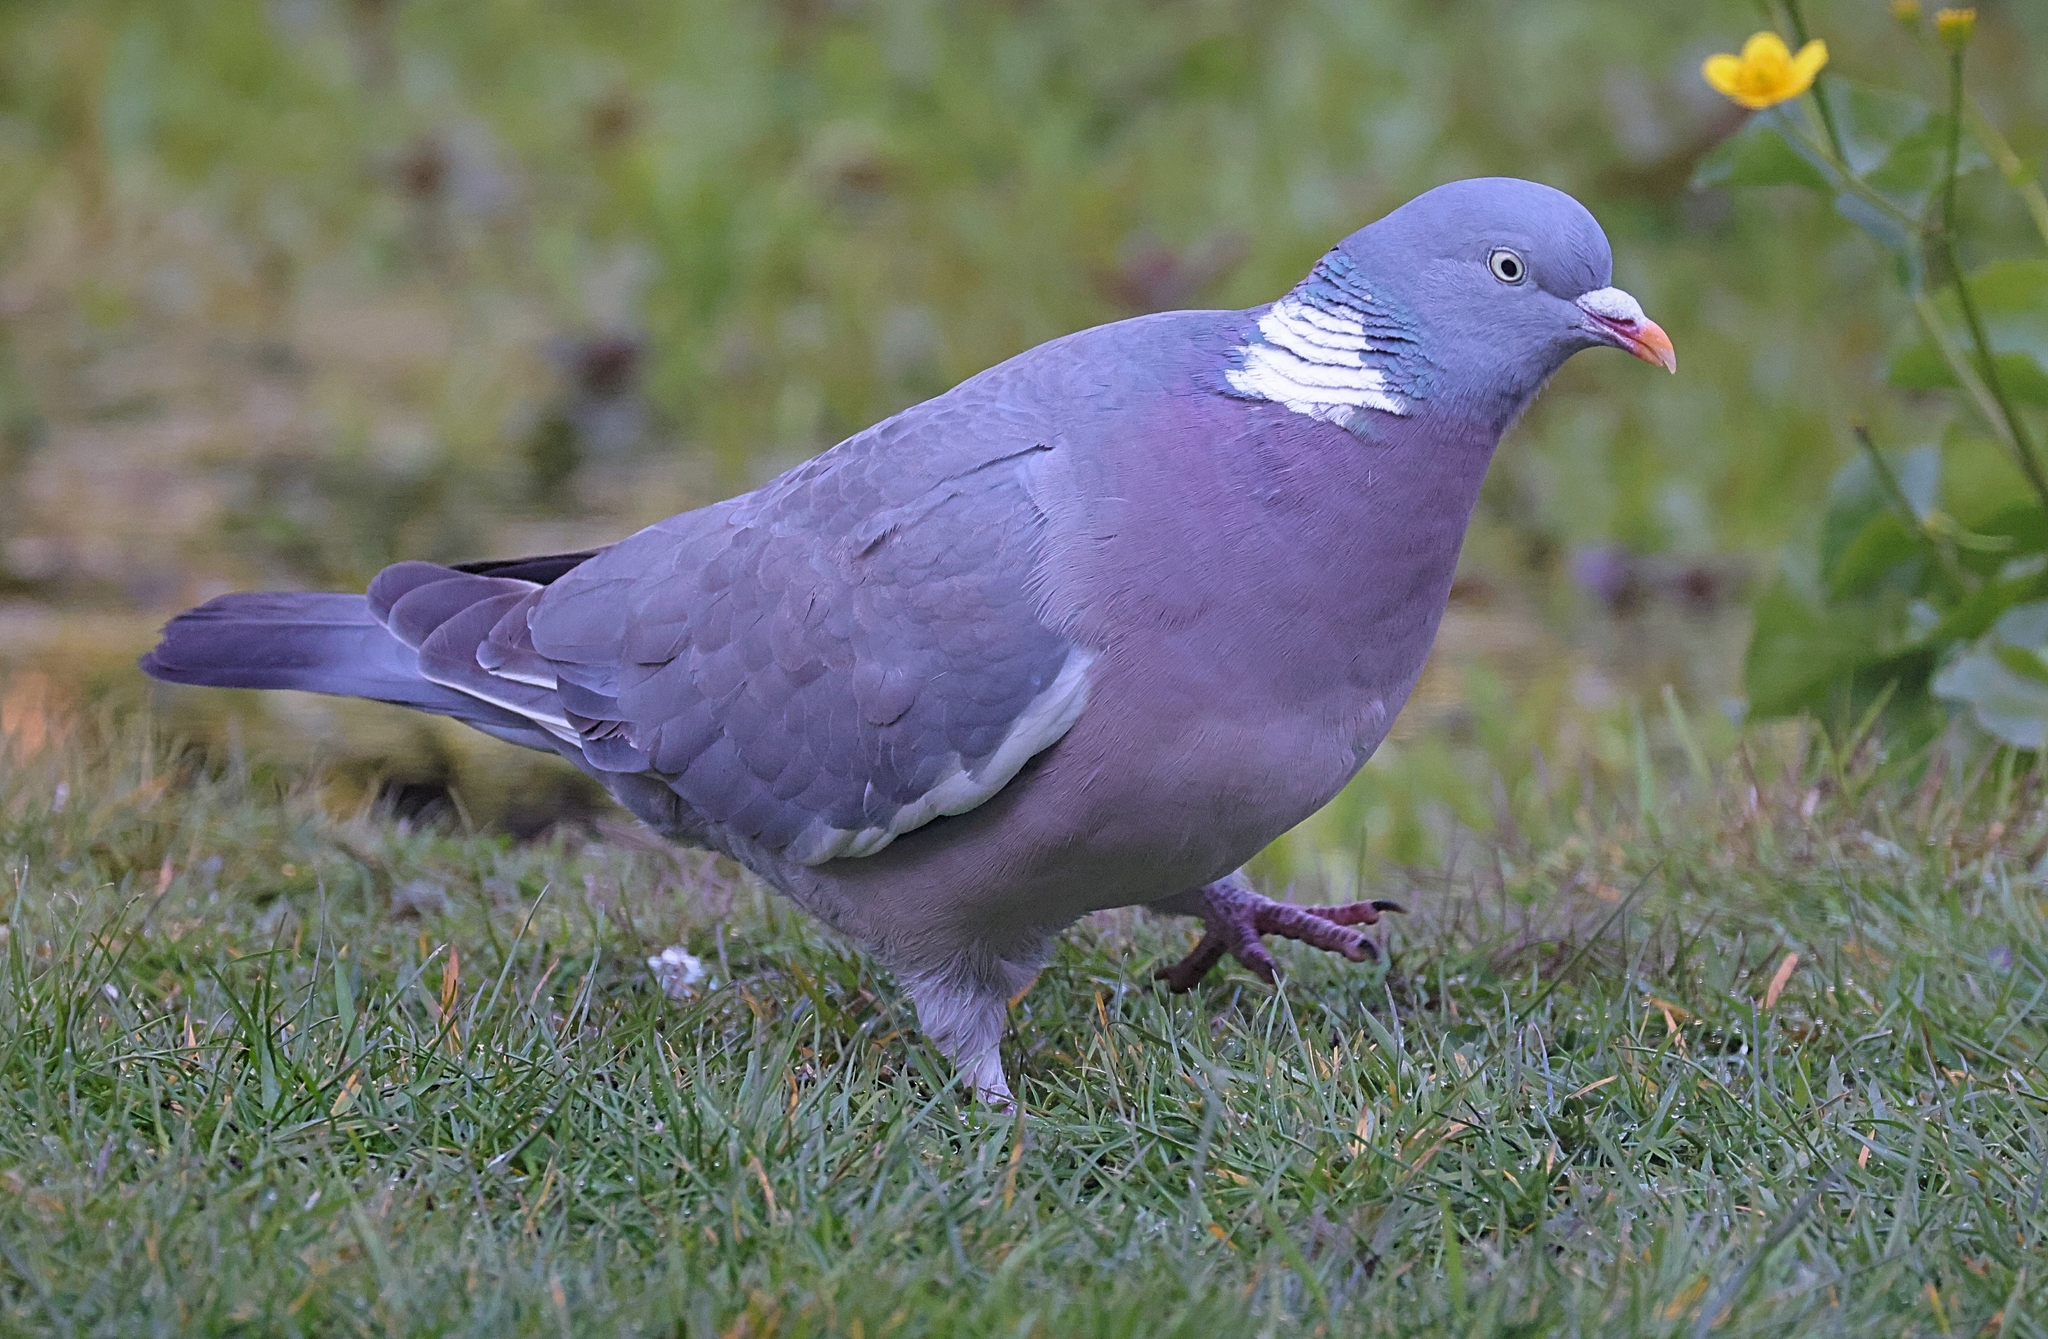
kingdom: Animalia
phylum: Chordata
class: Aves
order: Columbiformes
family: Columbidae
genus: Columba
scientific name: Columba palumbus
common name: Common wood pigeon
